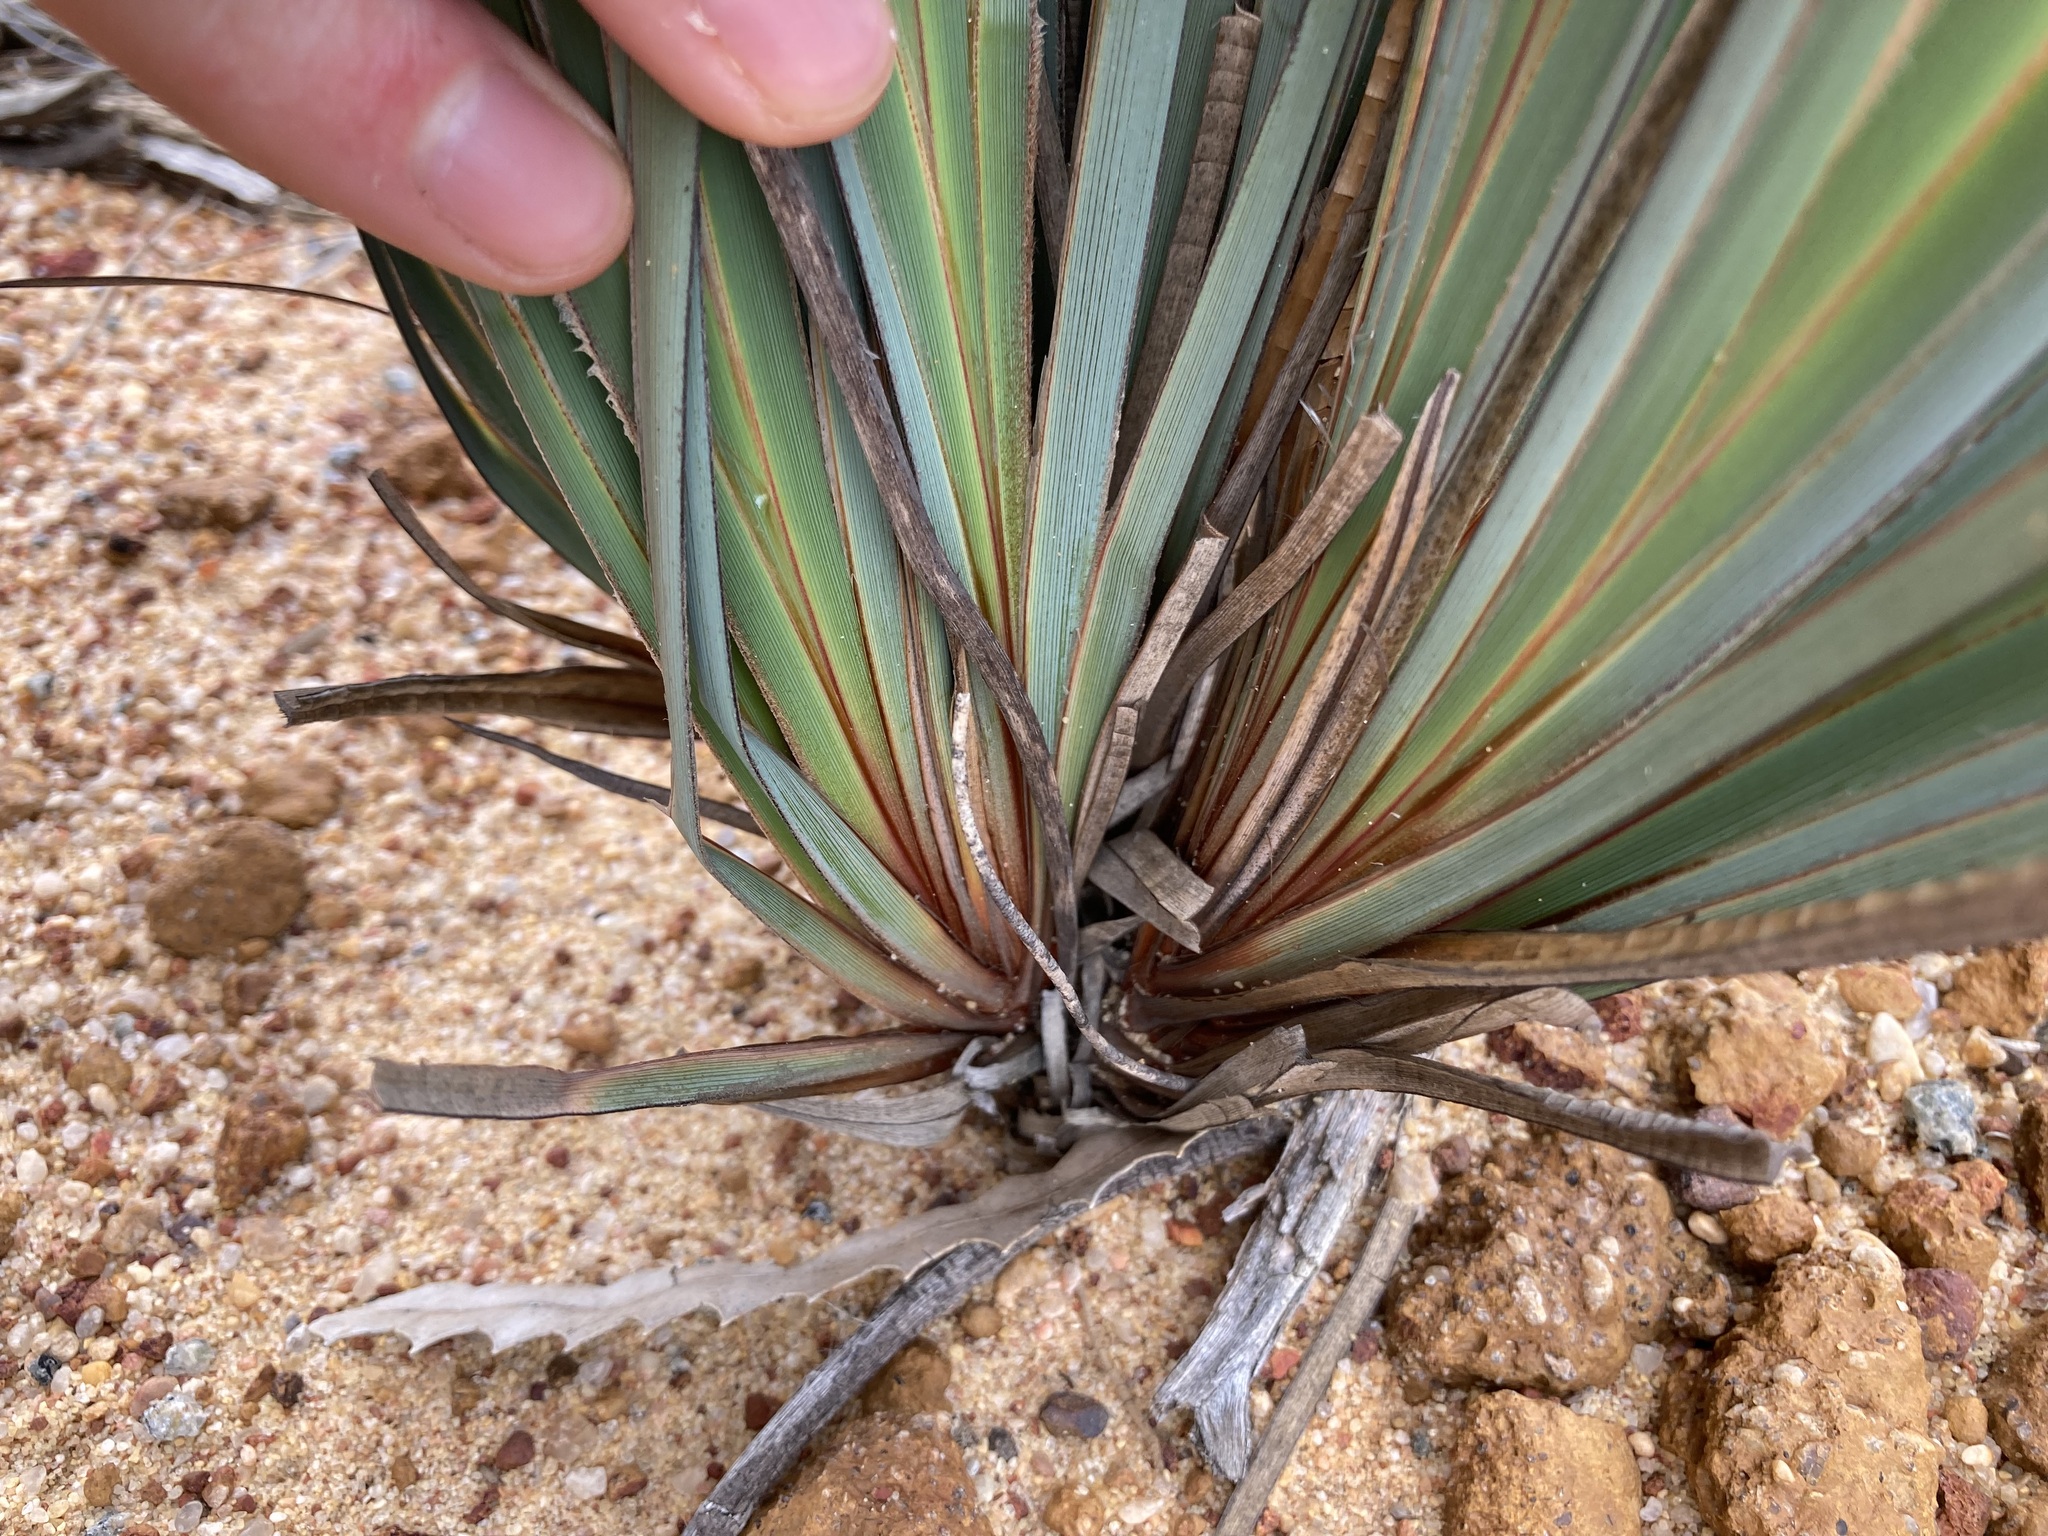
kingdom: Plantae
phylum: Tracheophyta
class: Liliopsida
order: Asparagales
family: Iridaceae
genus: Patersonia
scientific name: Patersonia occidentalis
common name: Long purple-flag
